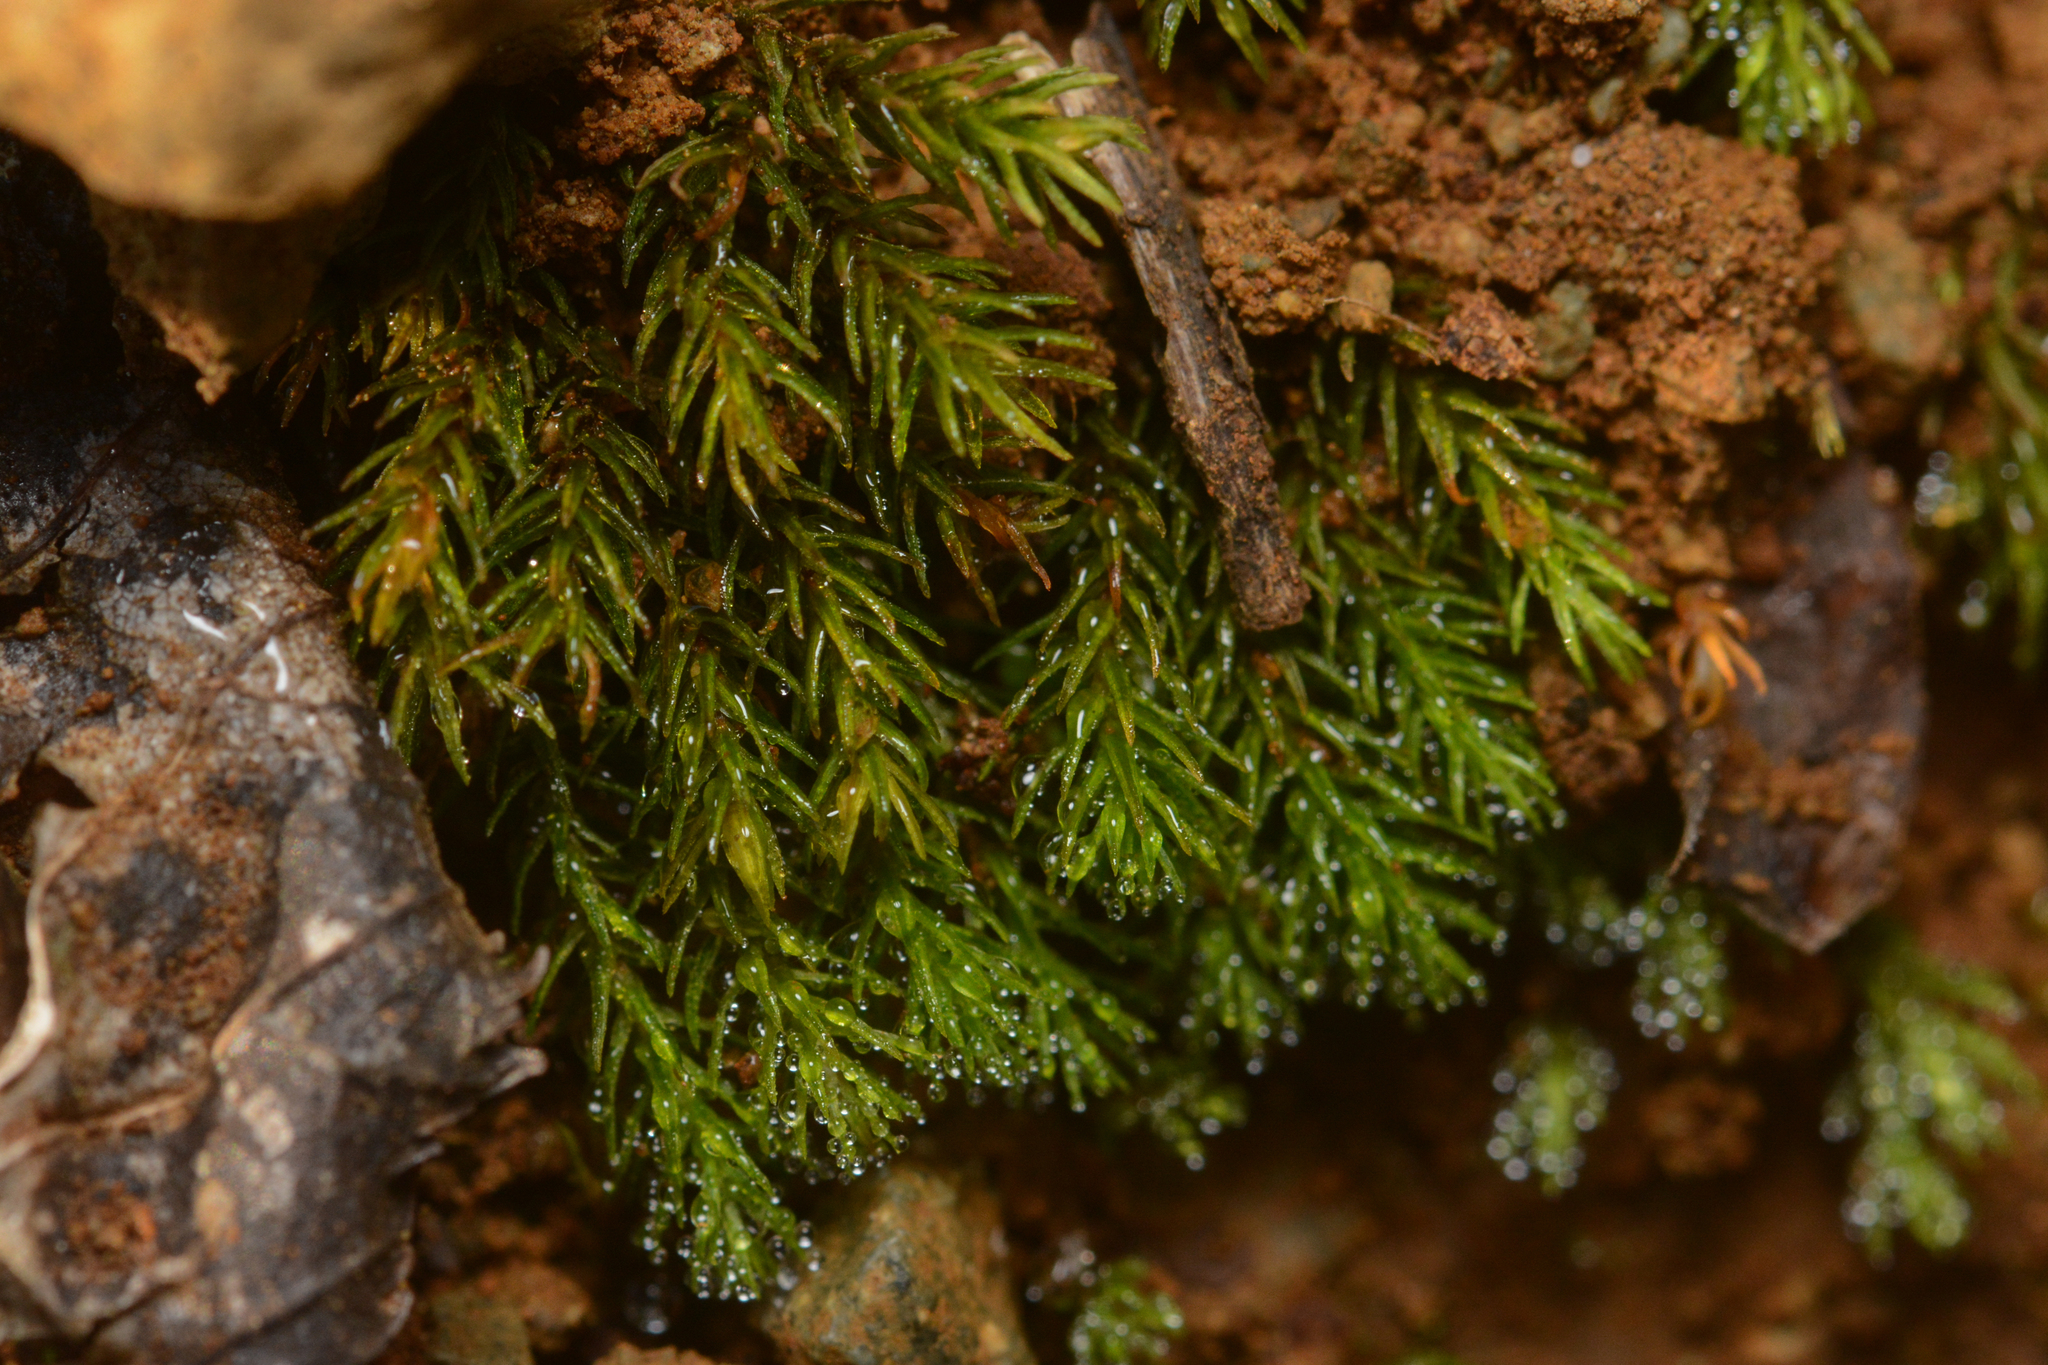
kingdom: Plantae
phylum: Bryophyta
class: Polytrichopsida
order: Polytrichales
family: Polytrichaceae
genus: Oligotrichum
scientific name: Oligotrichum aligerum
